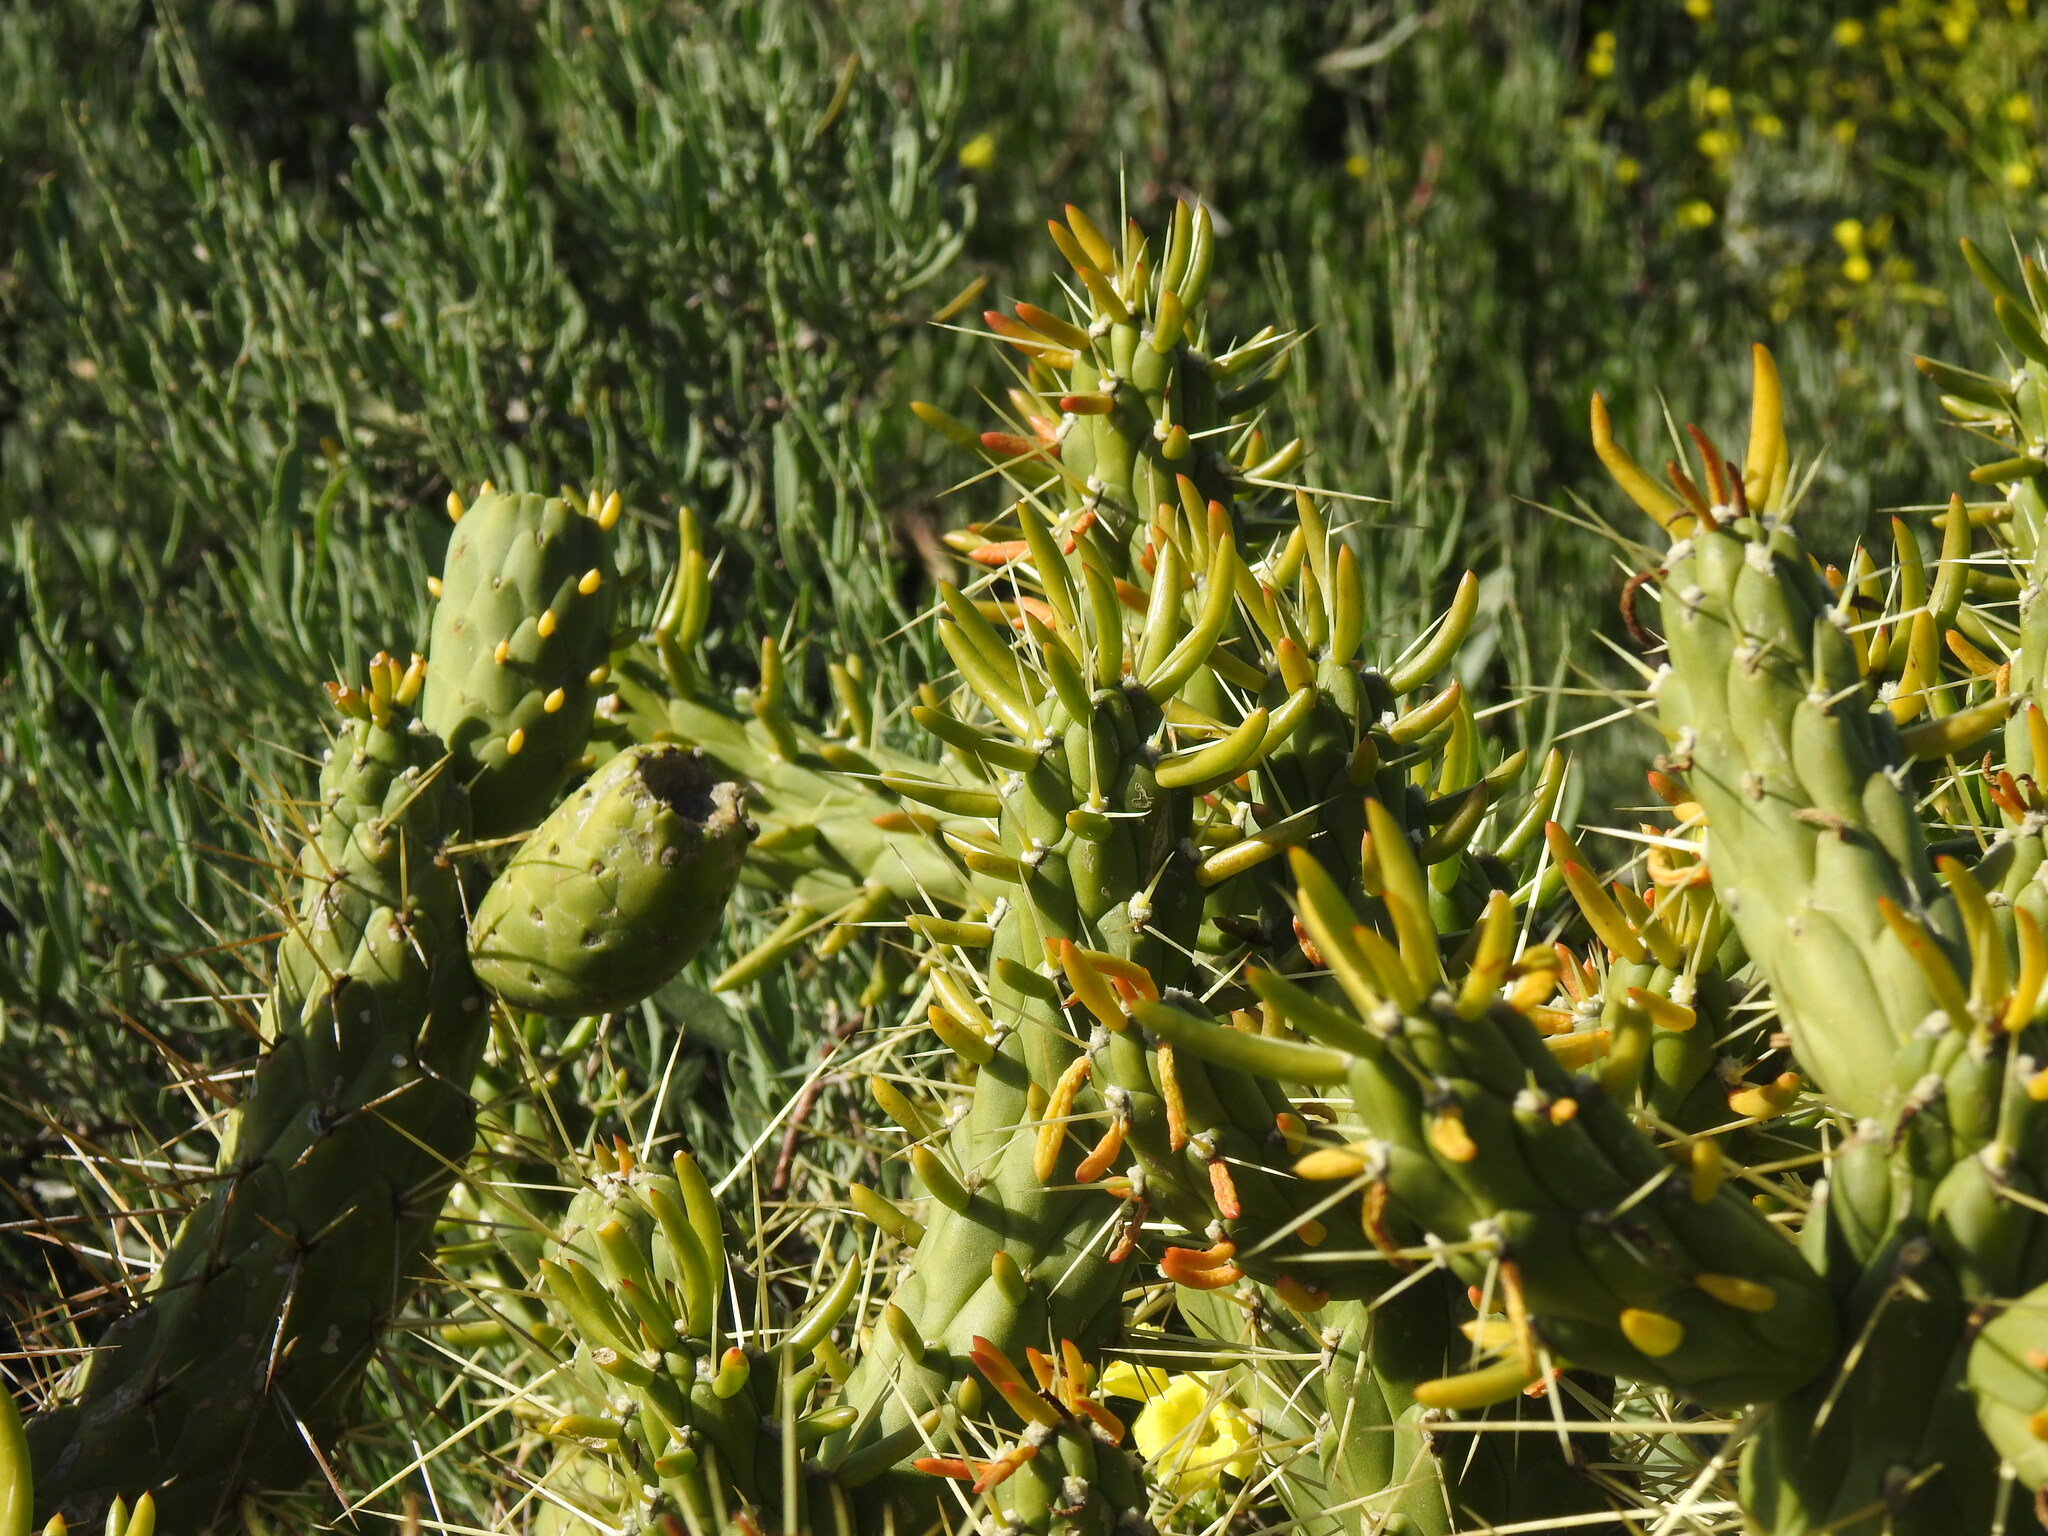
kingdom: Plantae
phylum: Tracheophyta
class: Magnoliopsida
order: Caryophyllales
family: Cactaceae
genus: Austrocylindropuntia
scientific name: Austrocylindropuntia subulata
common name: Eve's needle cactus
